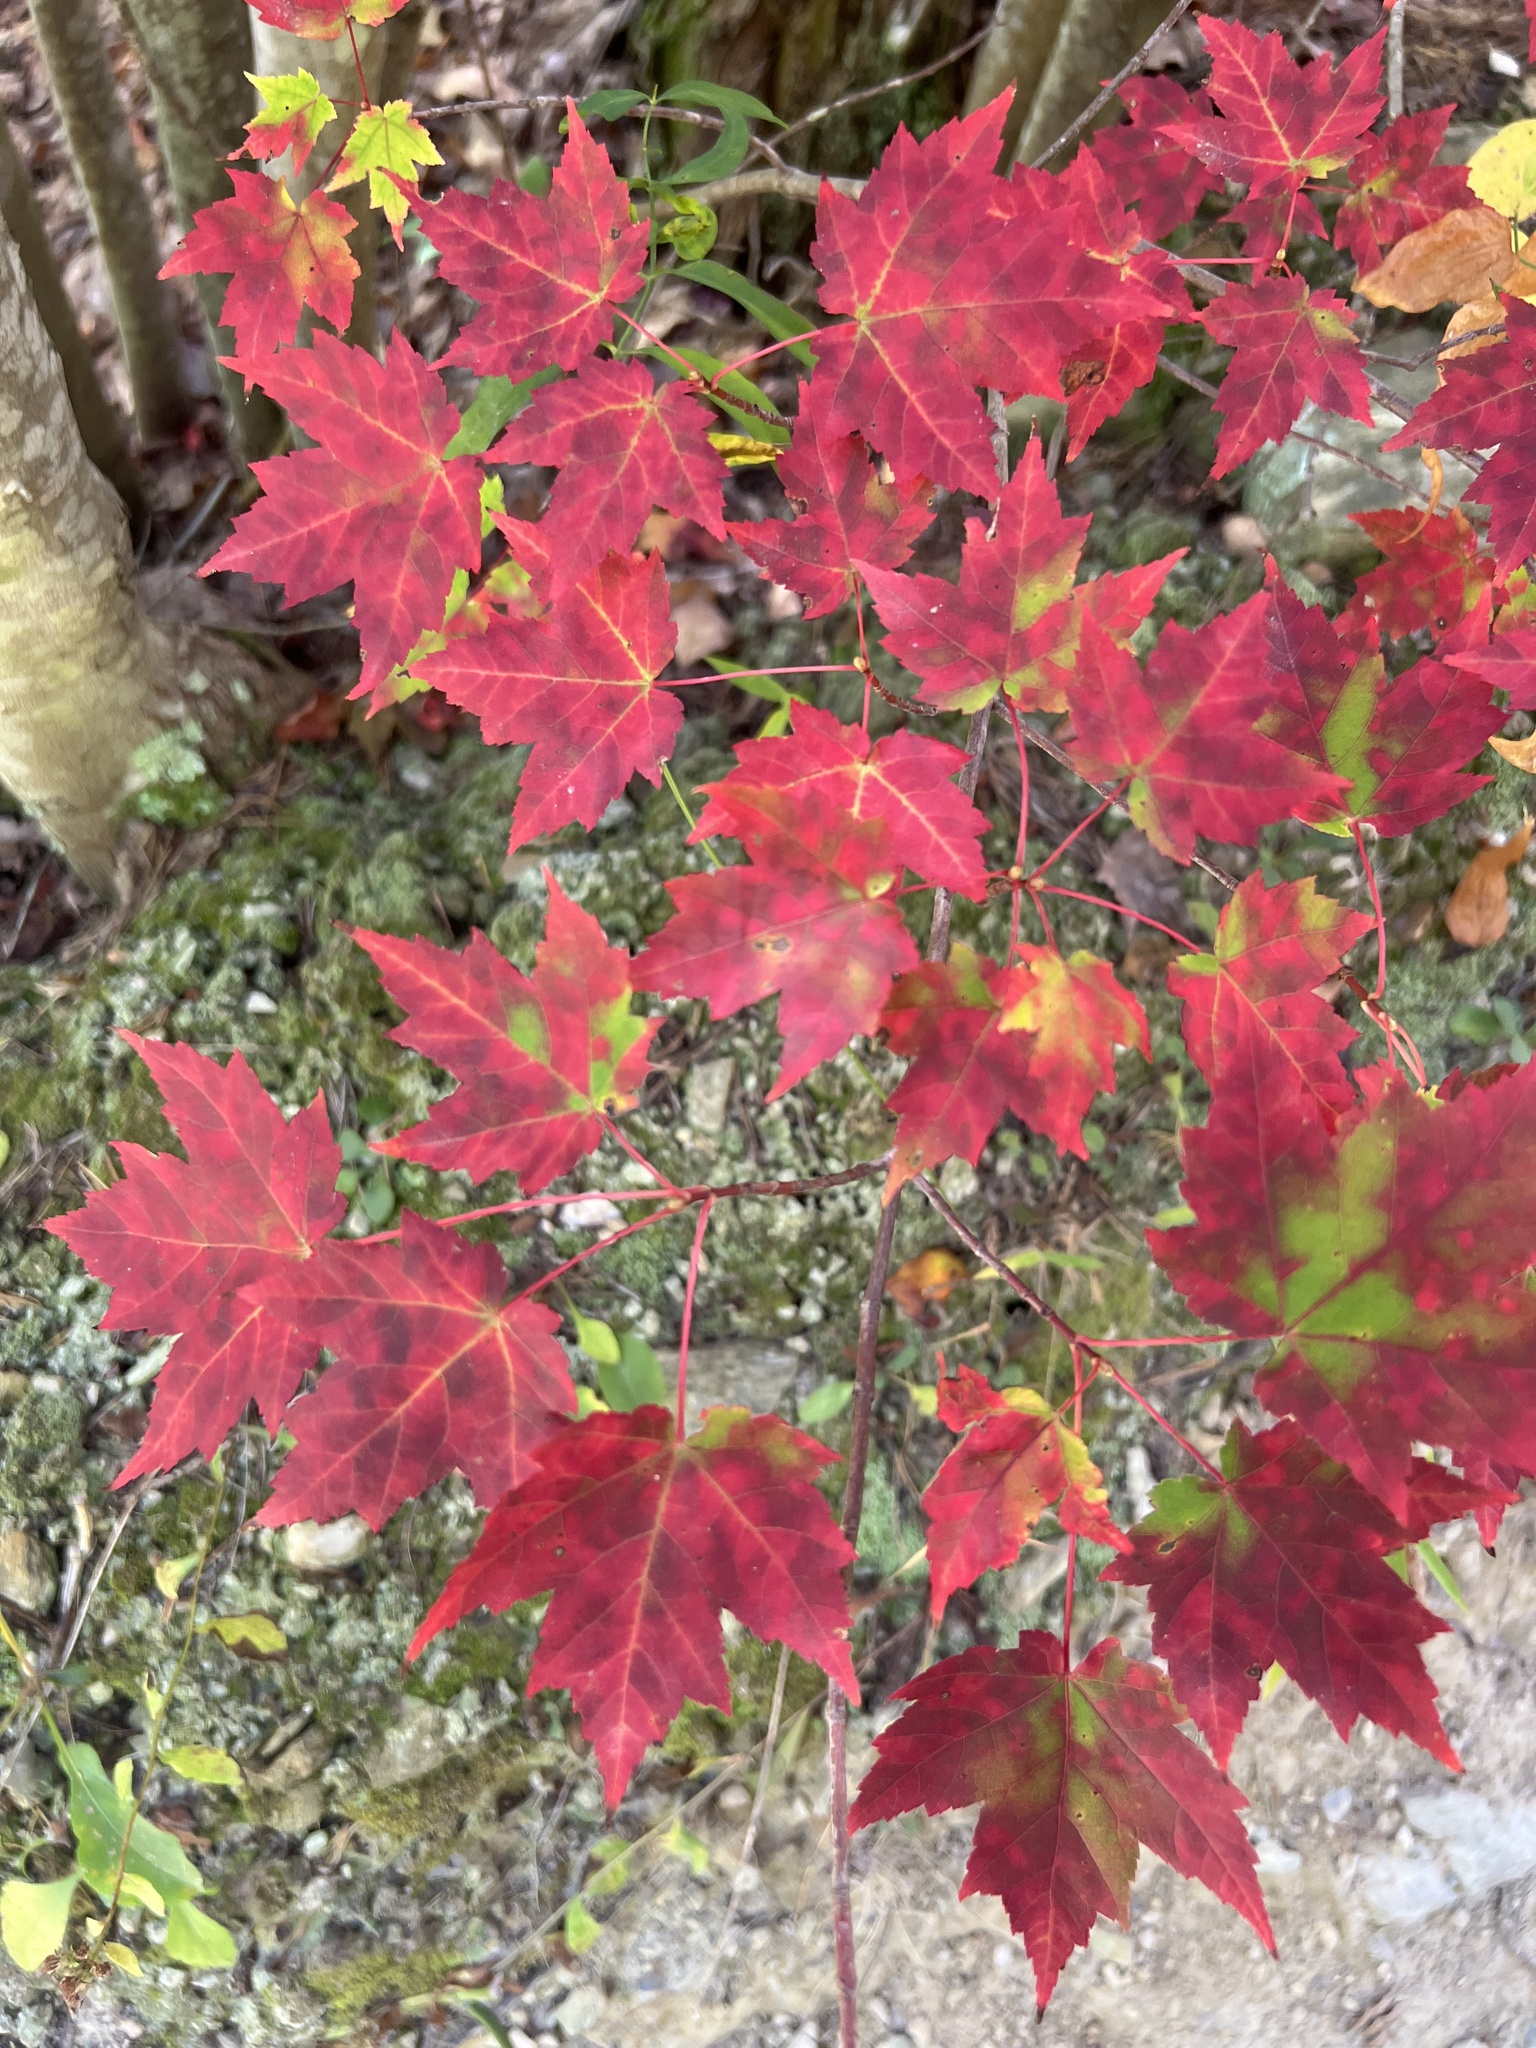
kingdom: Plantae
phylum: Tracheophyta
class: Magnoliopsida
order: Sapindales
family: Sapindaceae
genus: Acer
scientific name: Acer rubrum
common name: Red maple
